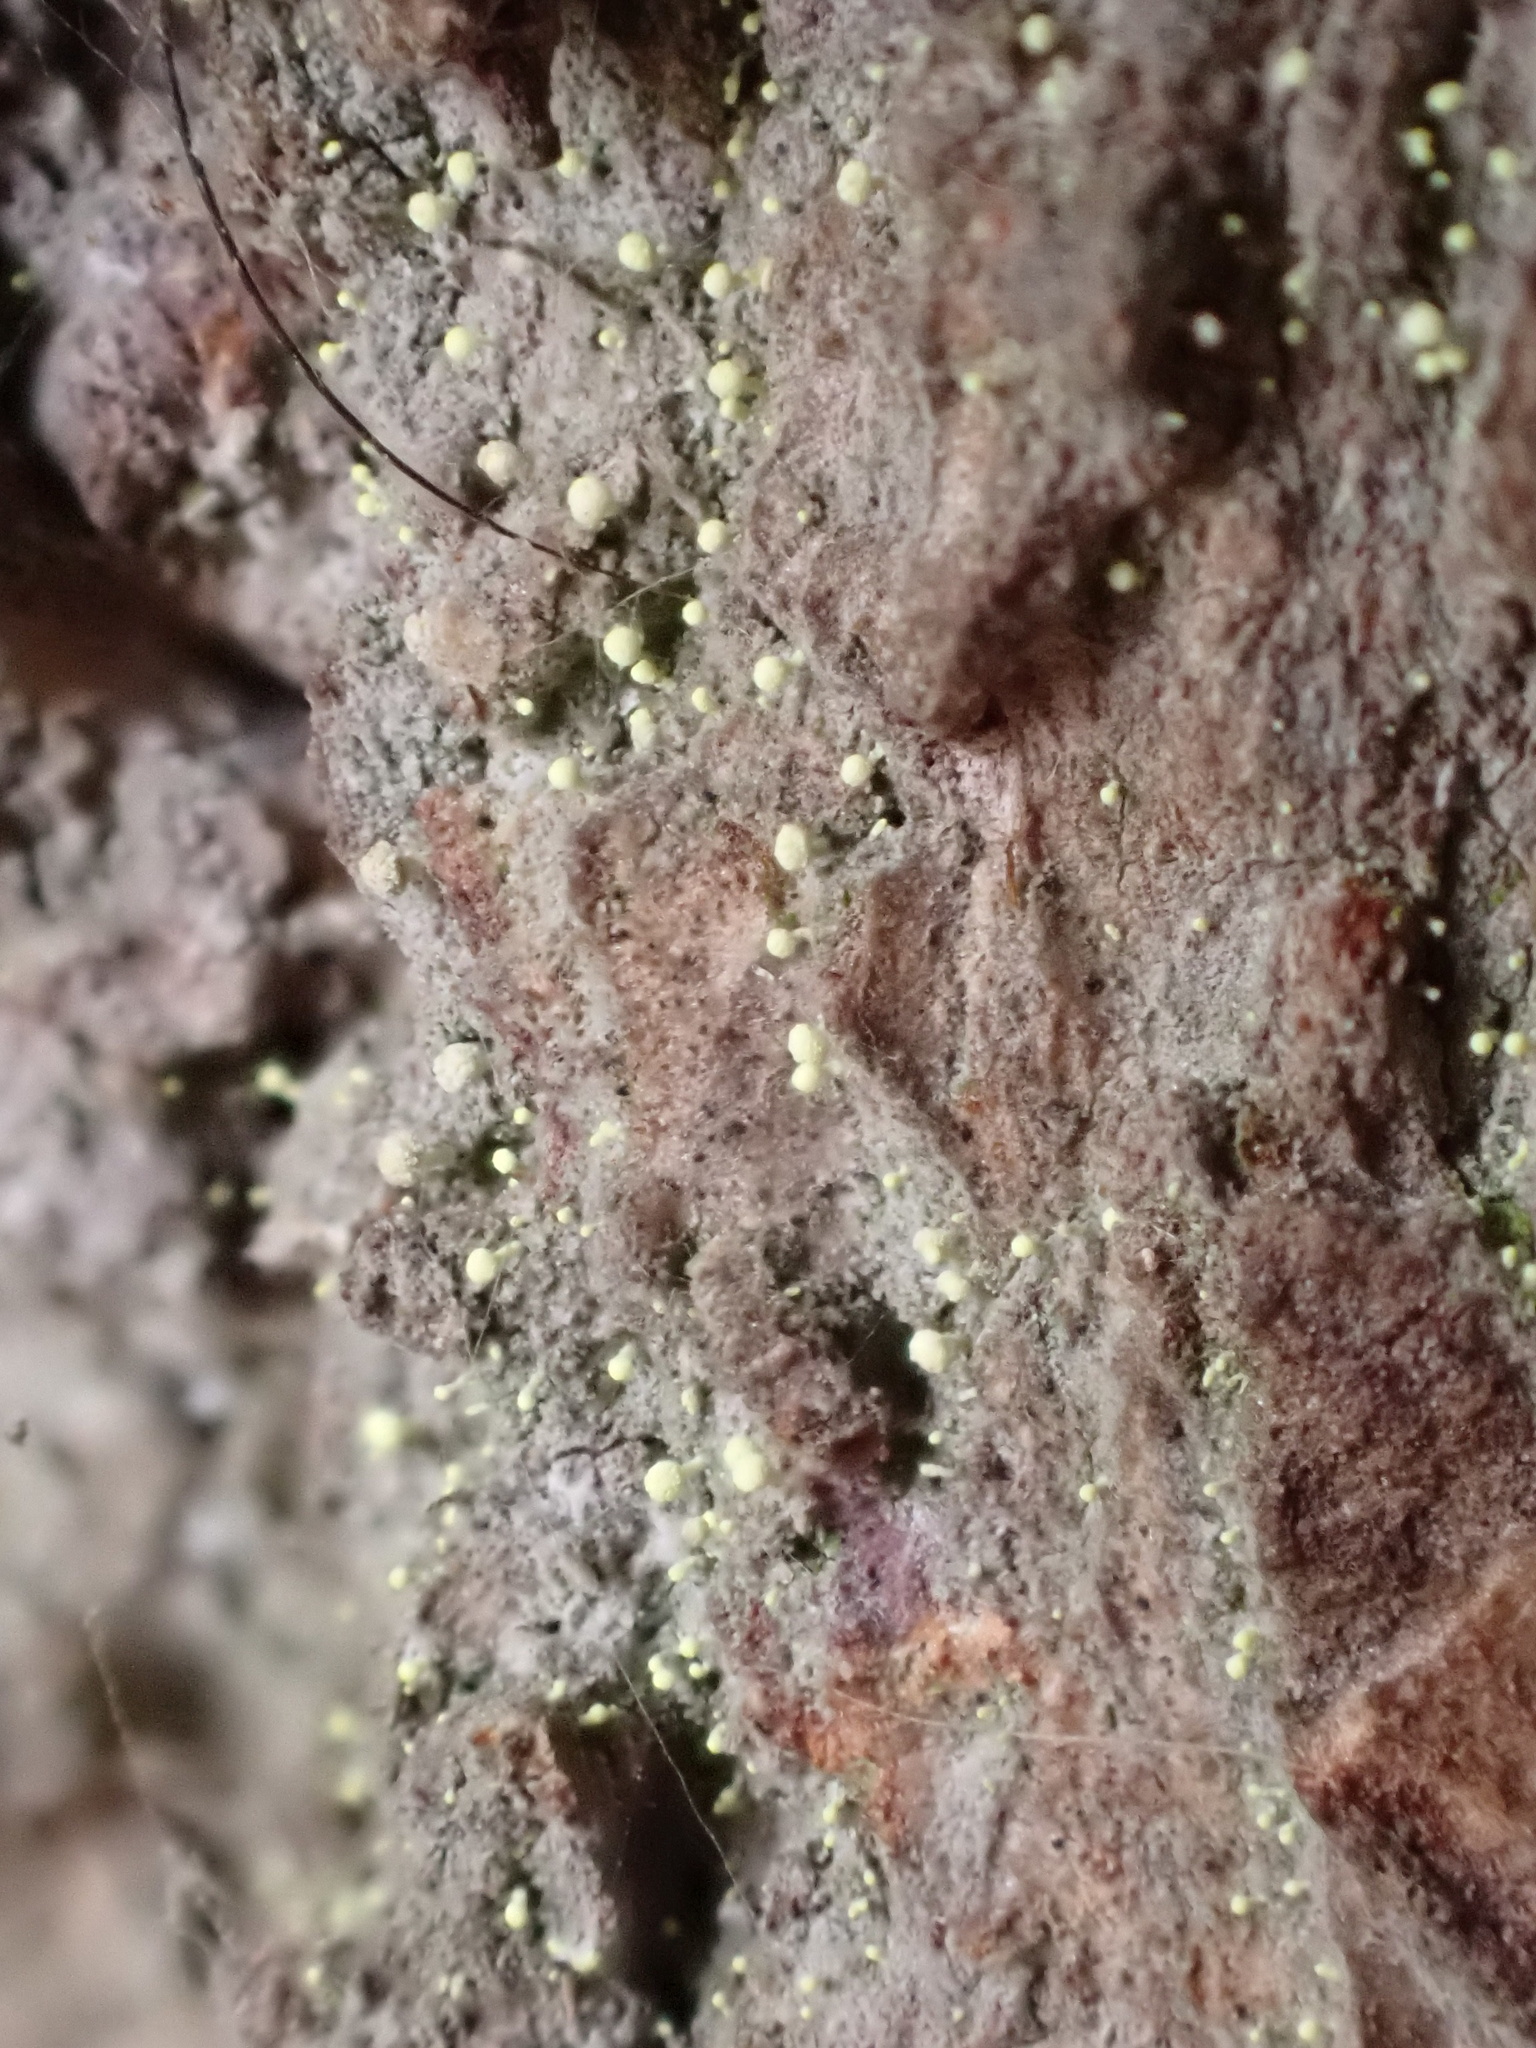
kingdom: Fungi
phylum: Ascomycota
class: Coniocybomycetes
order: Coniocybales
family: Coniocybaceae
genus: Chaenotheca
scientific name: Chaenotheca brachypoda
